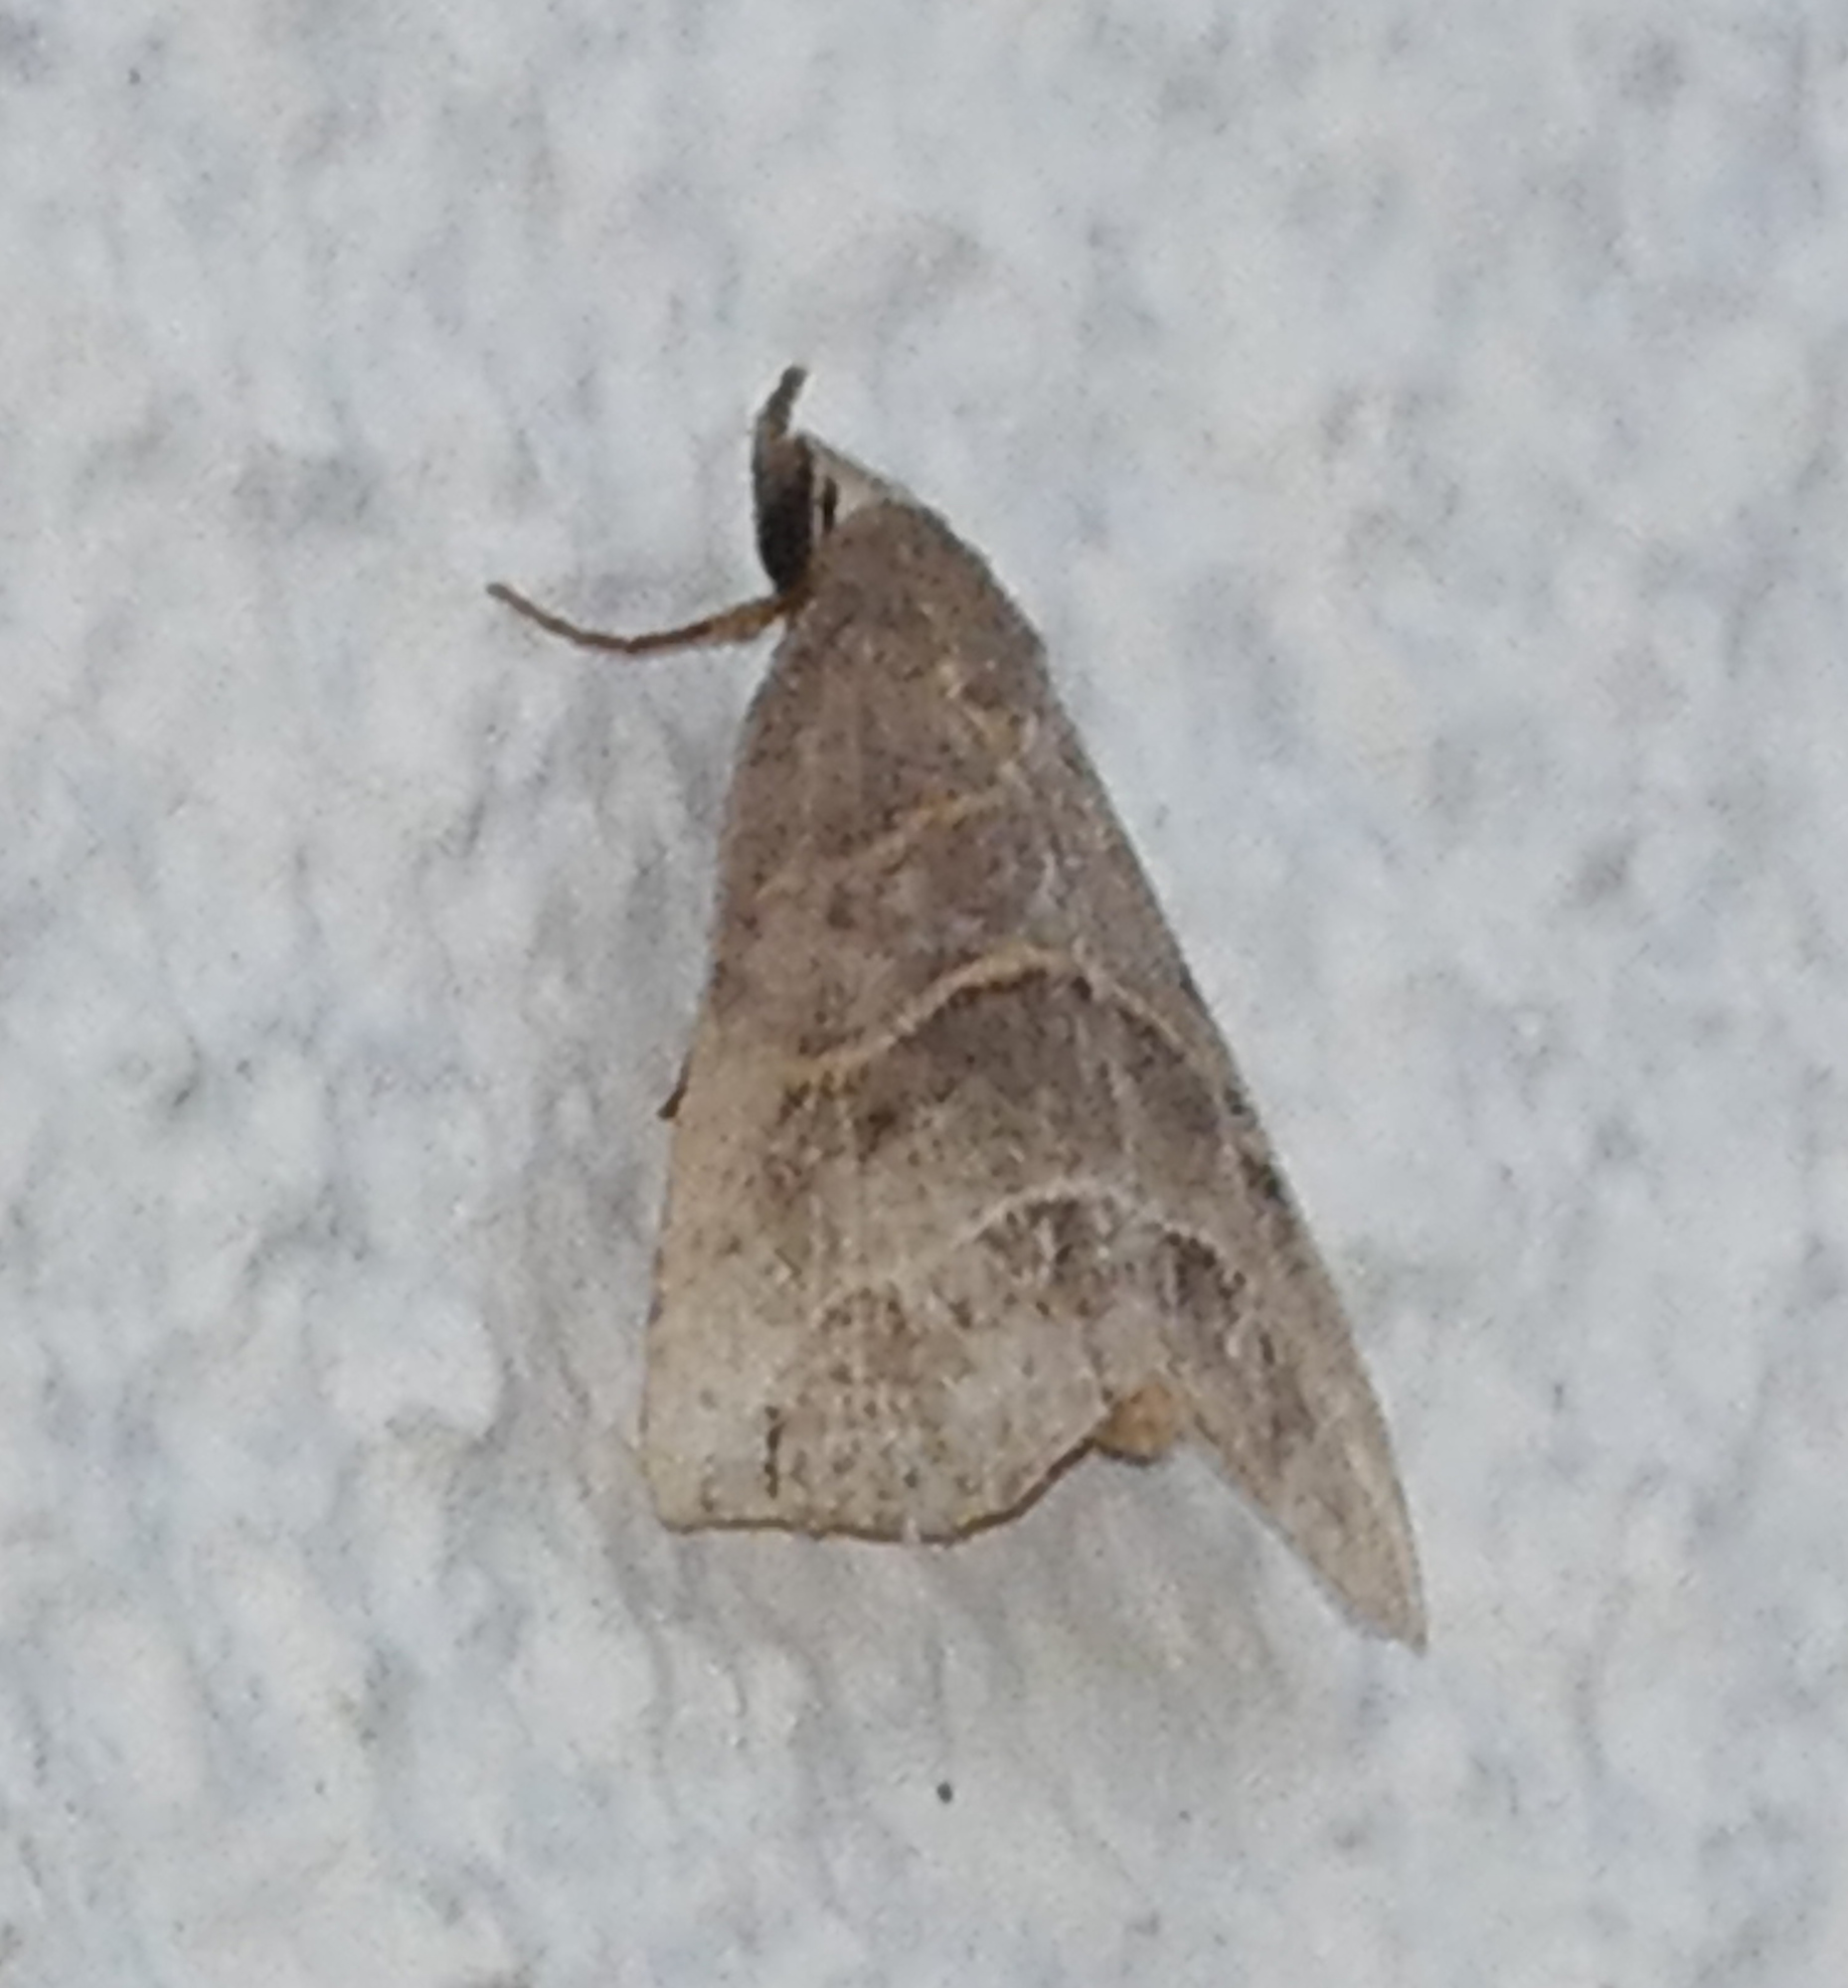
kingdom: Animalia
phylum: Arthropoda
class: Insecta
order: Lepidoptera
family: Erebidae
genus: Colobochyla
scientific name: Colobochyla interpuncta
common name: Yellow-lined owlet
